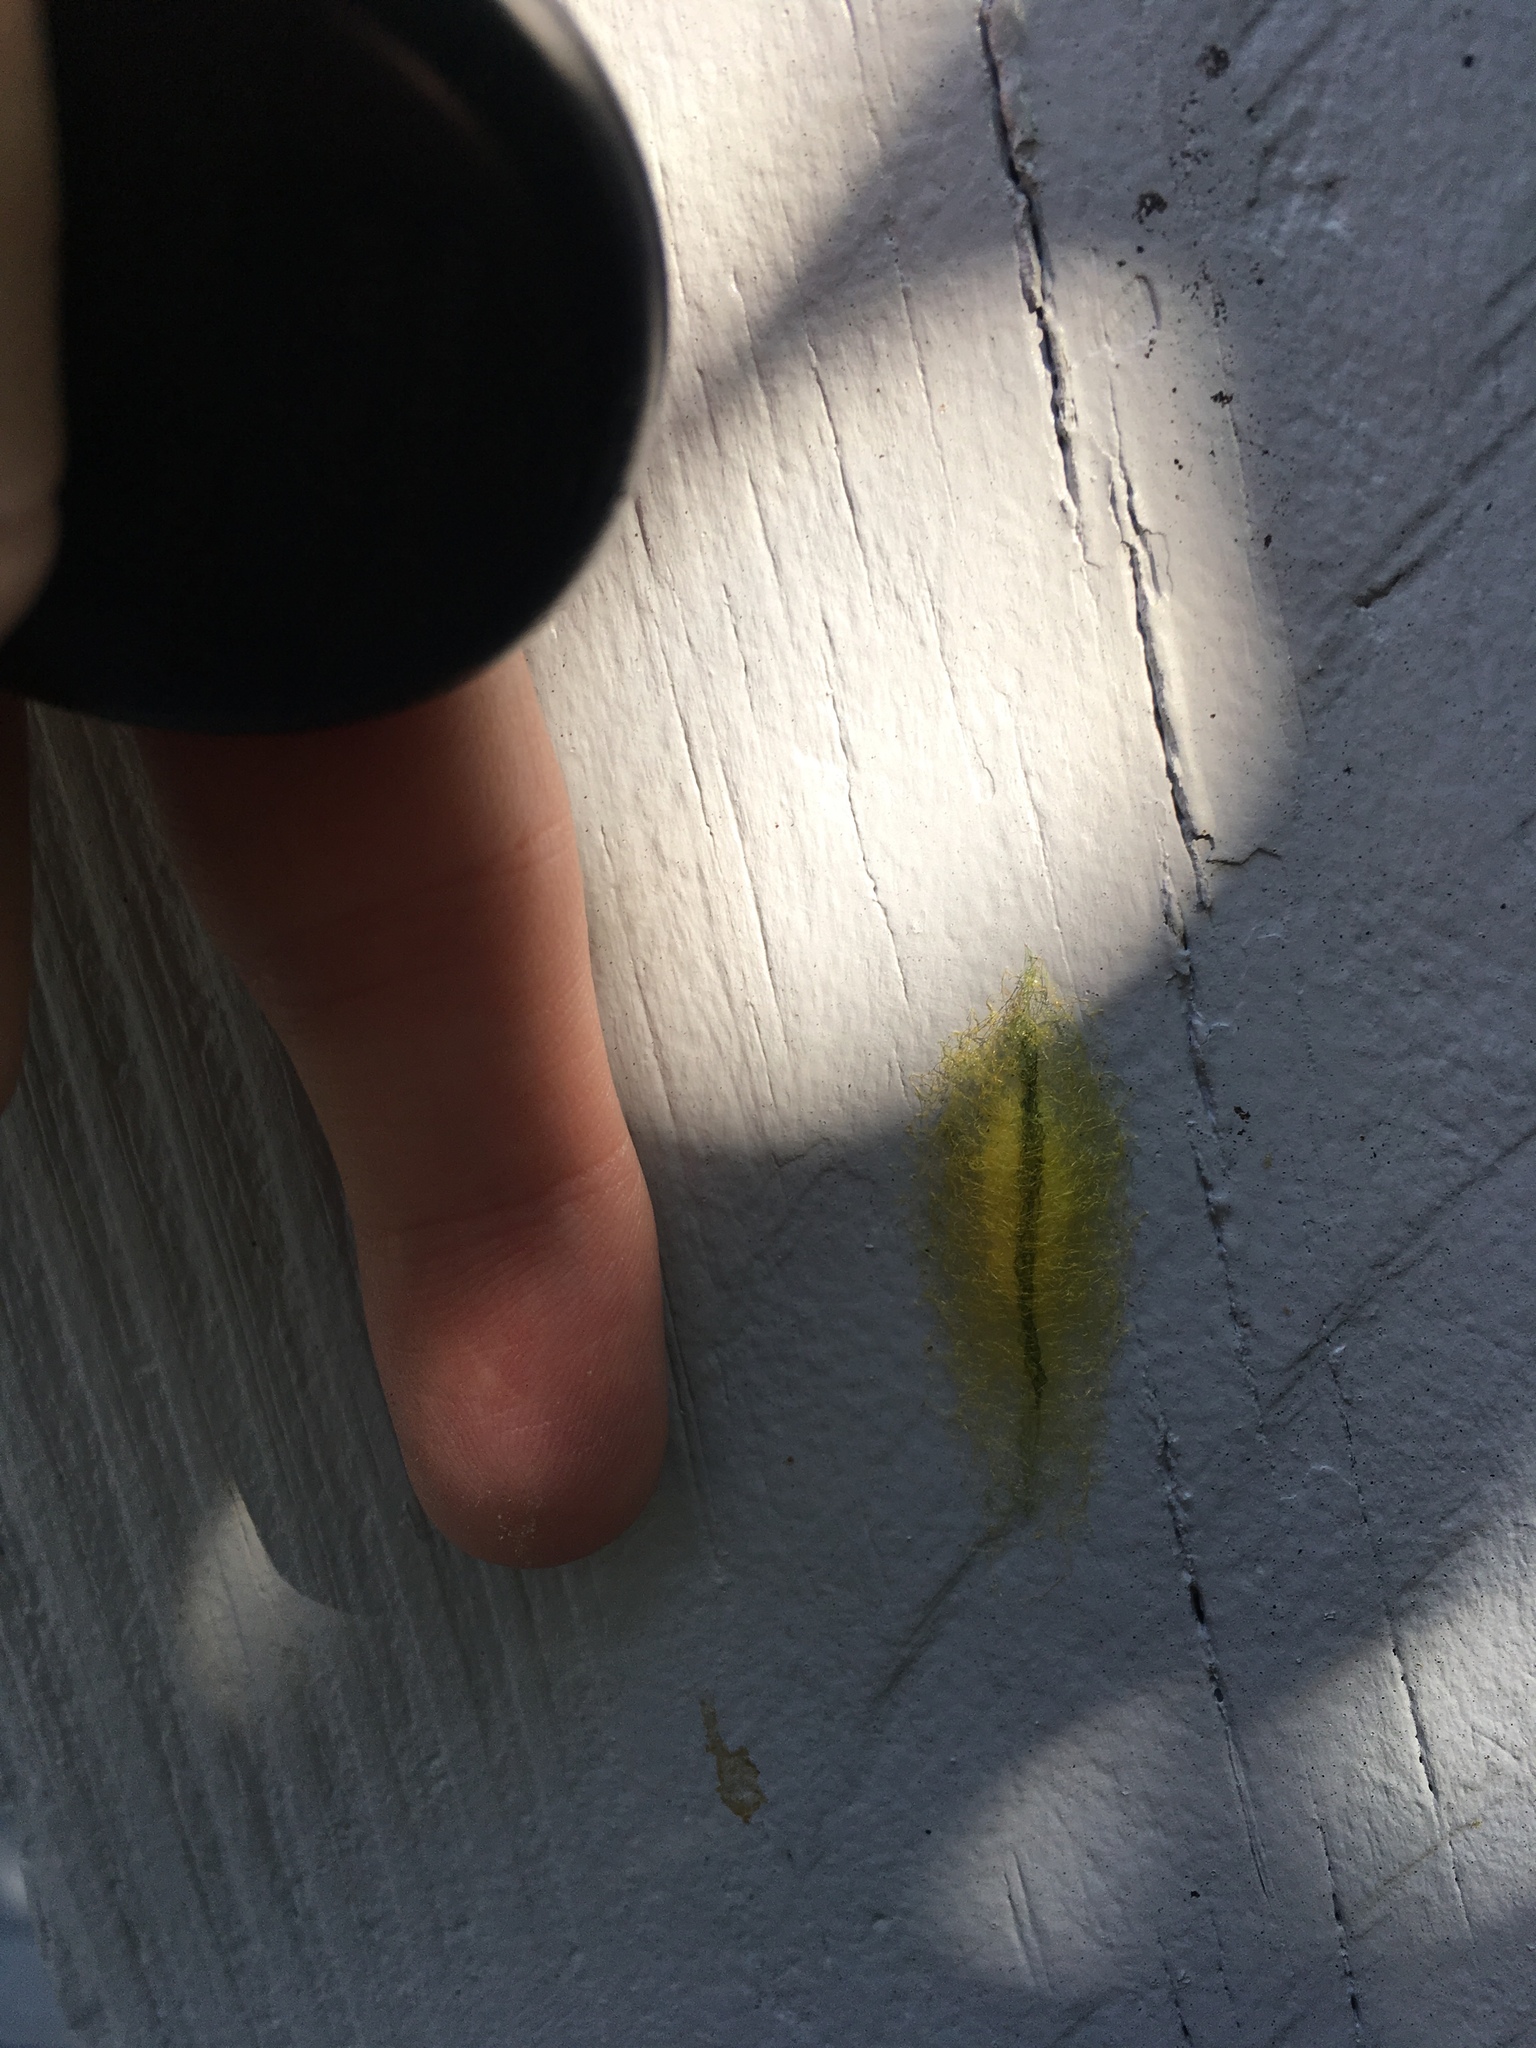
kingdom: Animalia
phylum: Arthropoda
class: Arachnida
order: Araneae
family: Araneidae
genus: Gasteracantha
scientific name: Gasteracantha cancriformis
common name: Orb weavers
